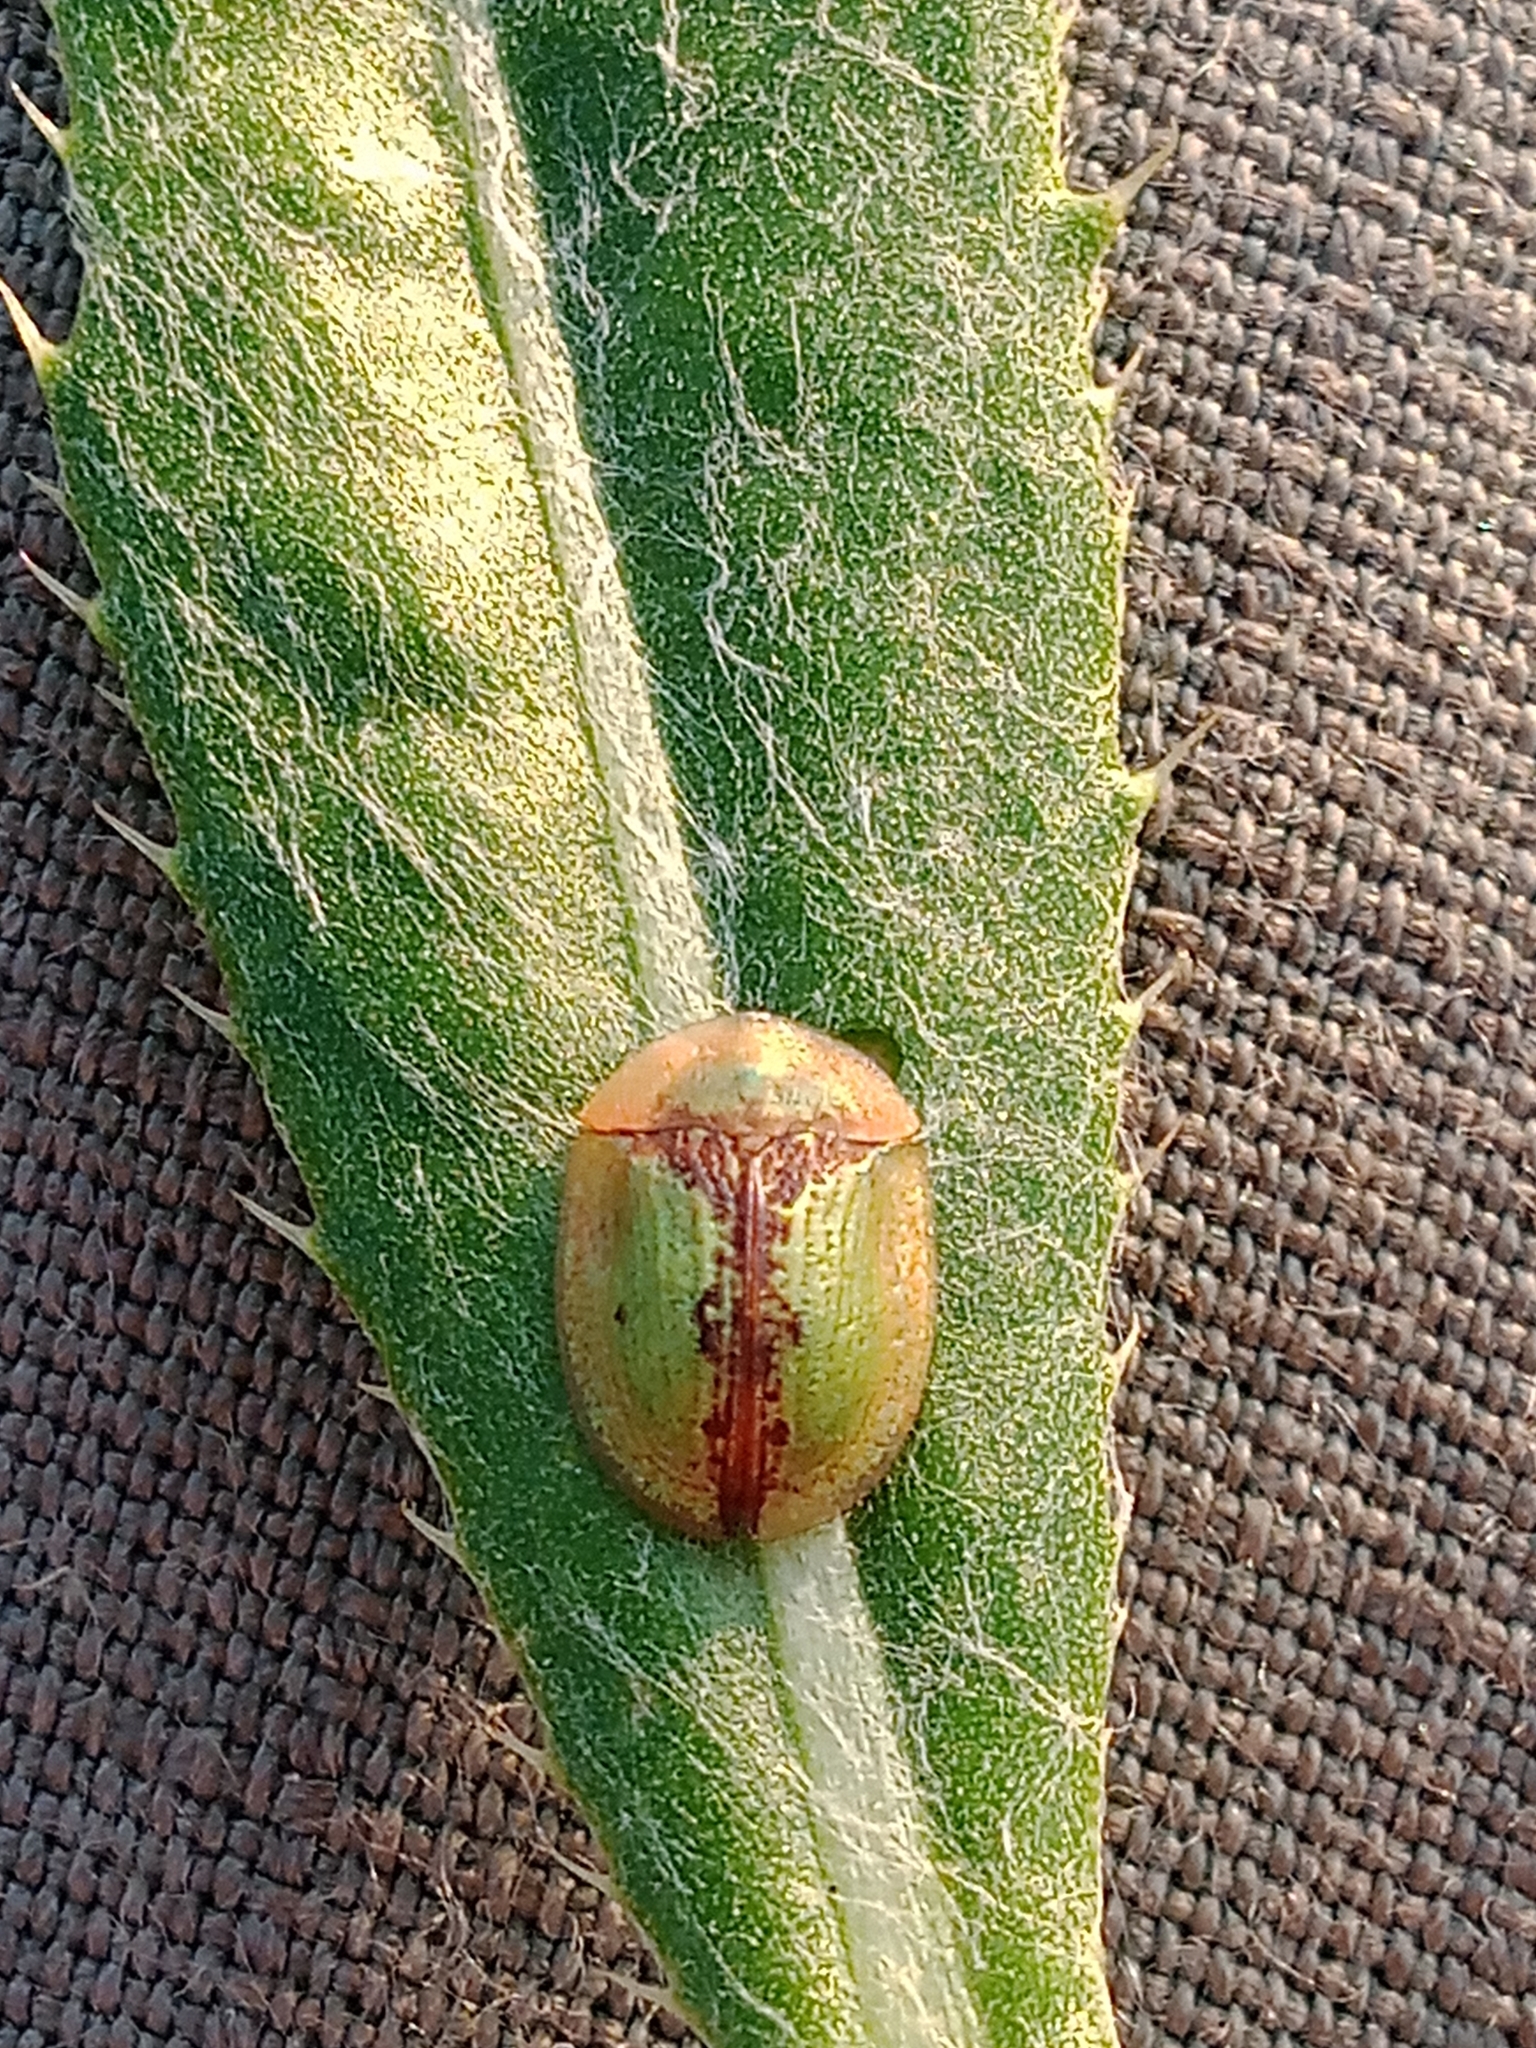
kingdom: Animalia
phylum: Arthropoda
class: Insecta
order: Coleoptera
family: Chrysomelidae
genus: Cassida
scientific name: Cassida vibex
